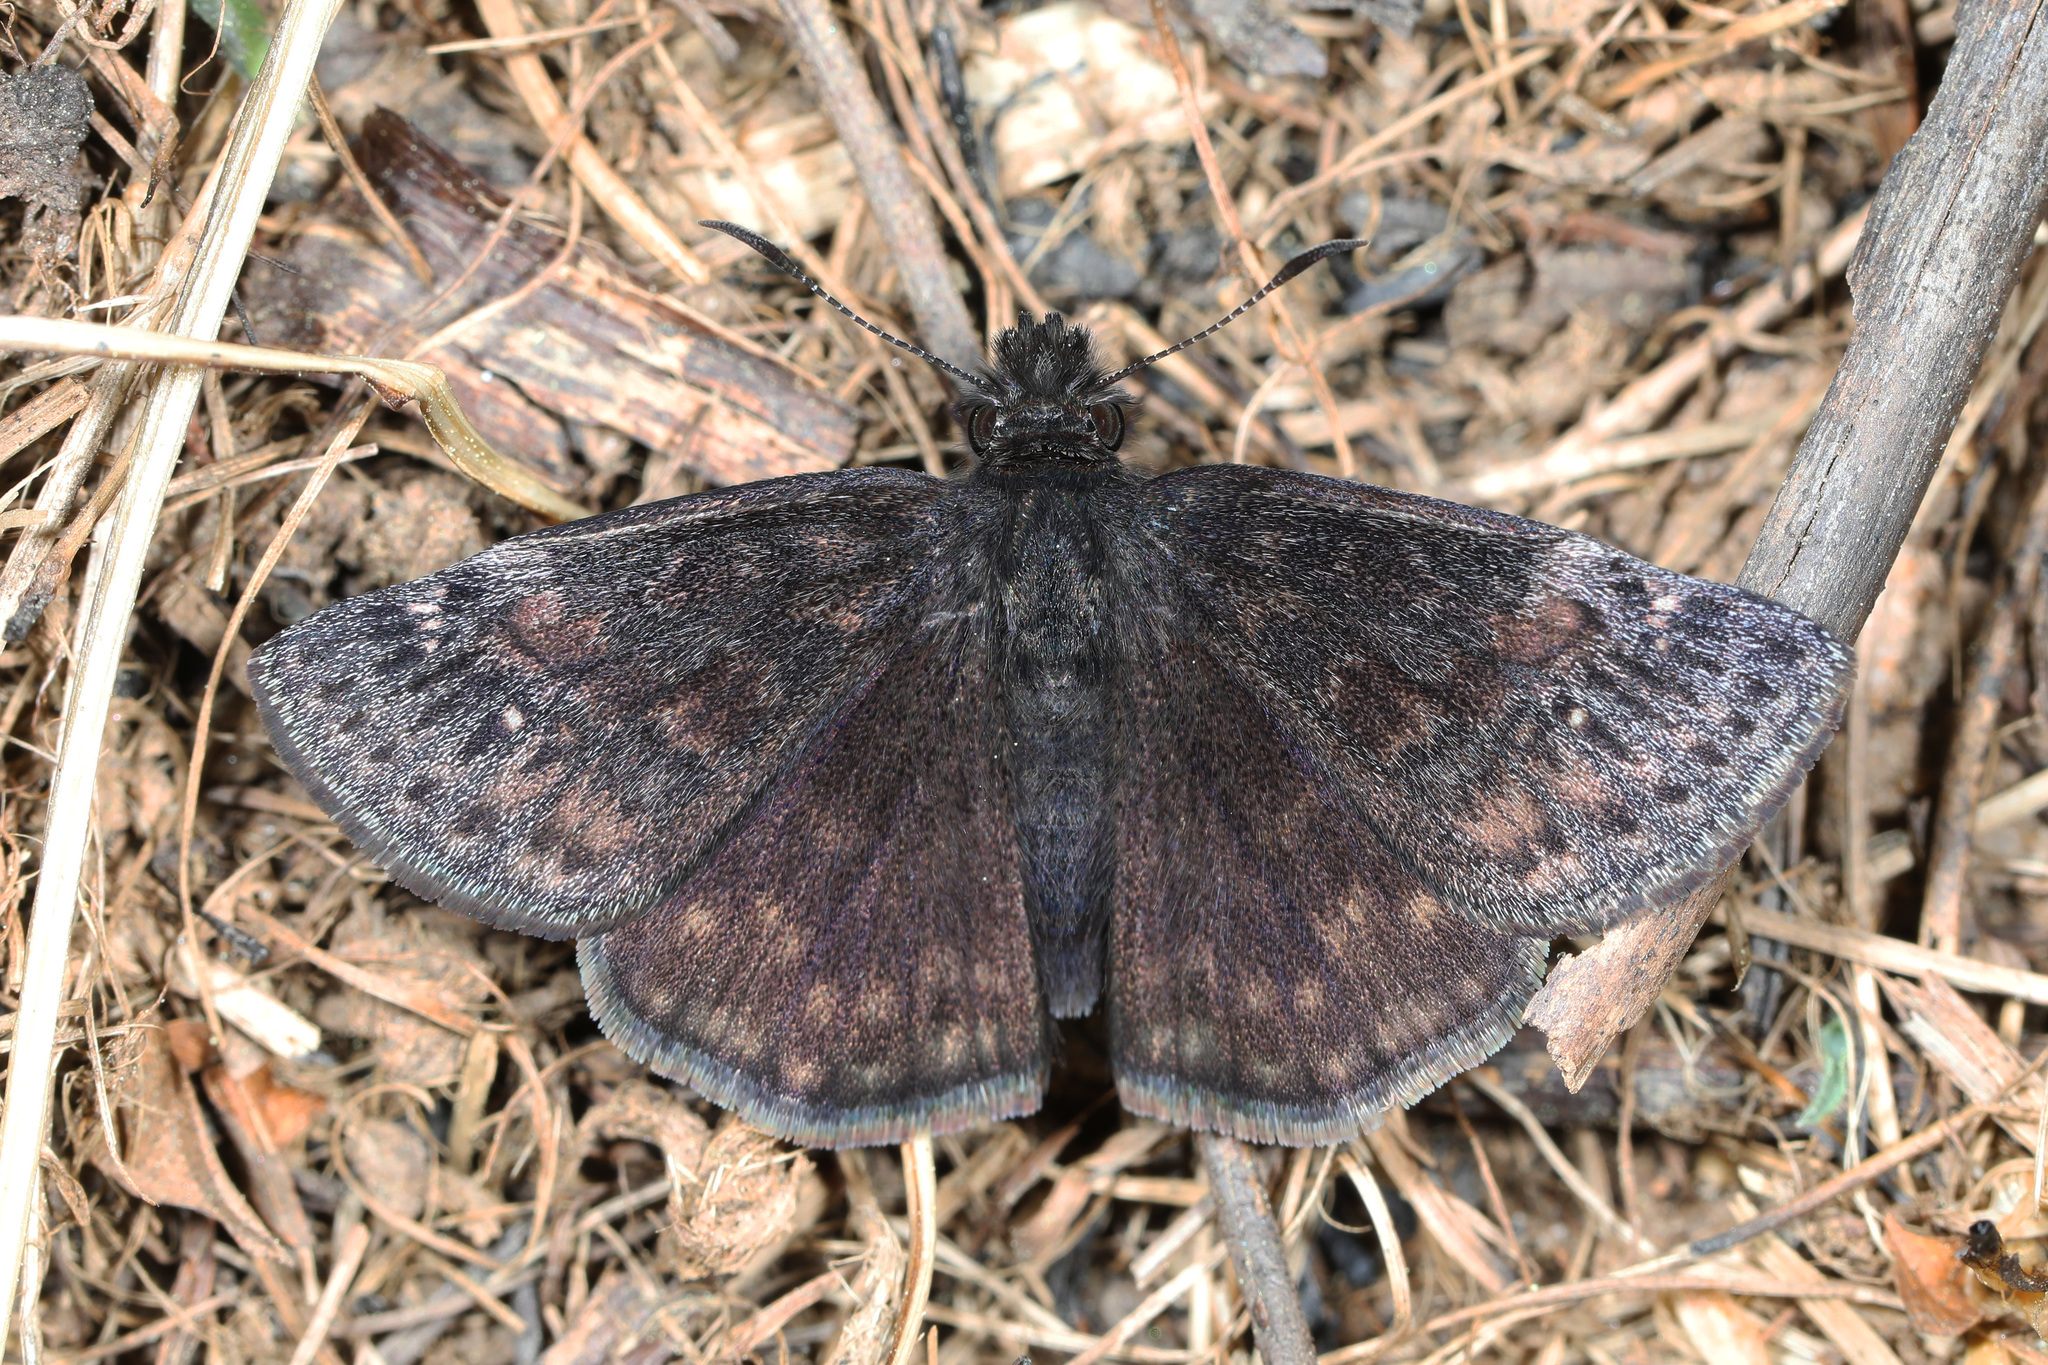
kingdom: Animalia
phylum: Arthropoda
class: Insecta
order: Lepidoptera
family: Hesperiidae
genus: Erynnis
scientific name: Erynnis baptisiae
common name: Wild indigo duskywing
